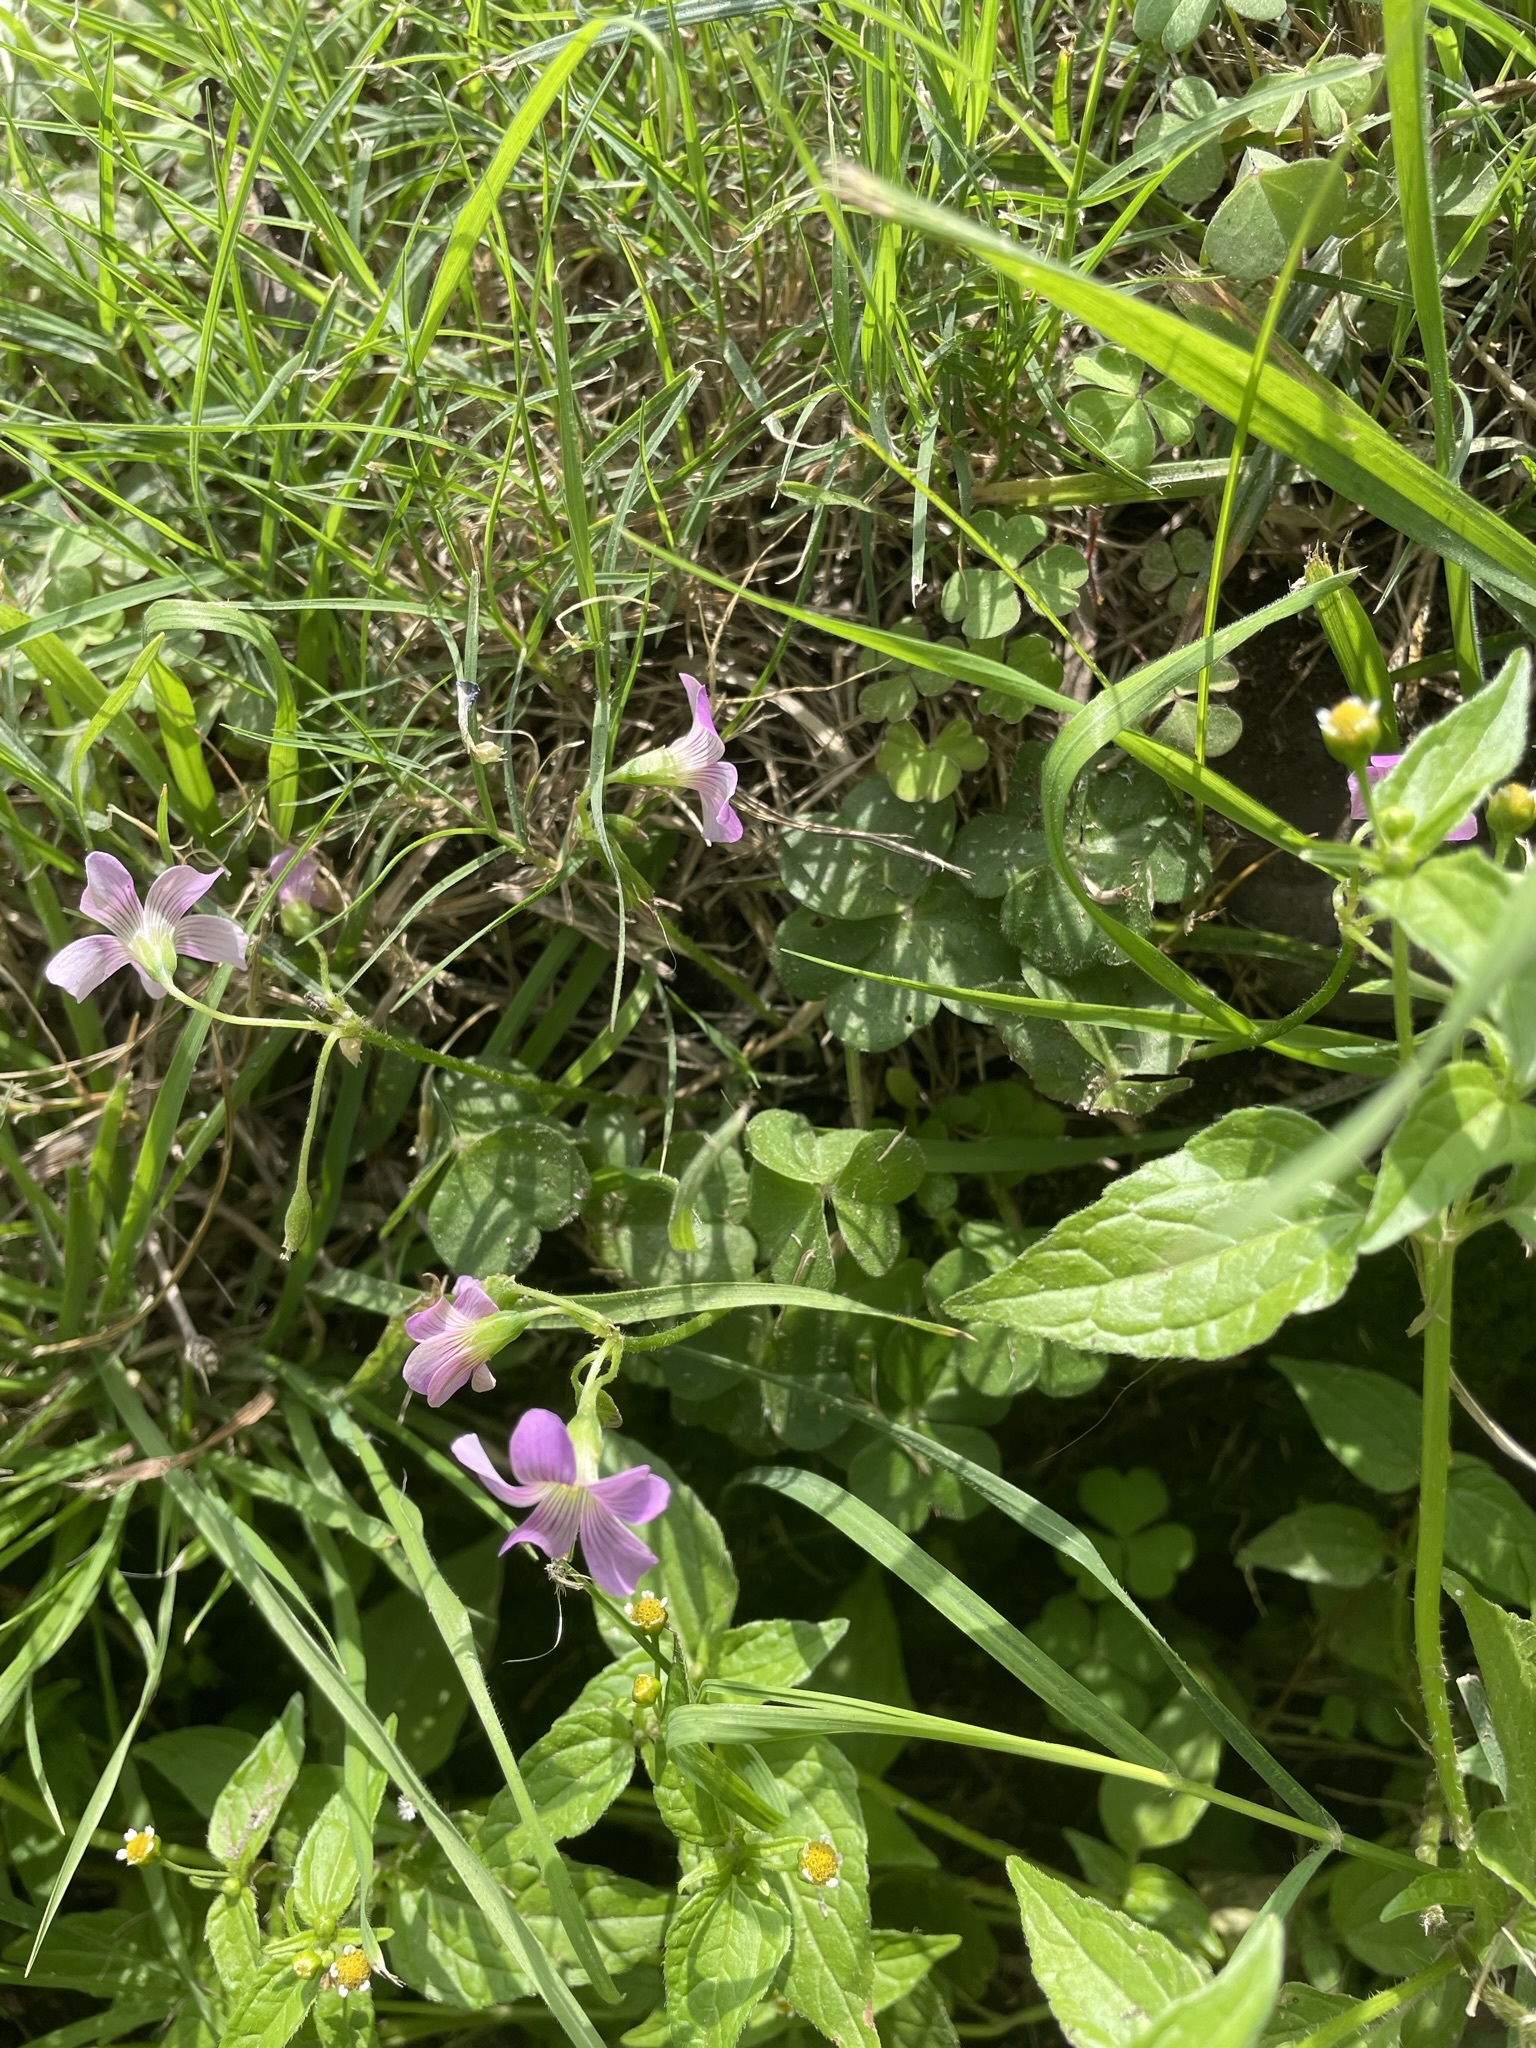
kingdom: Plantae
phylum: Tracheophyta
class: Magnoliopsida
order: Oxalidales
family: Oxalidaceae
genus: Oxalis
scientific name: Oxalis debilis
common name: Large-flowered pink-sorrel
